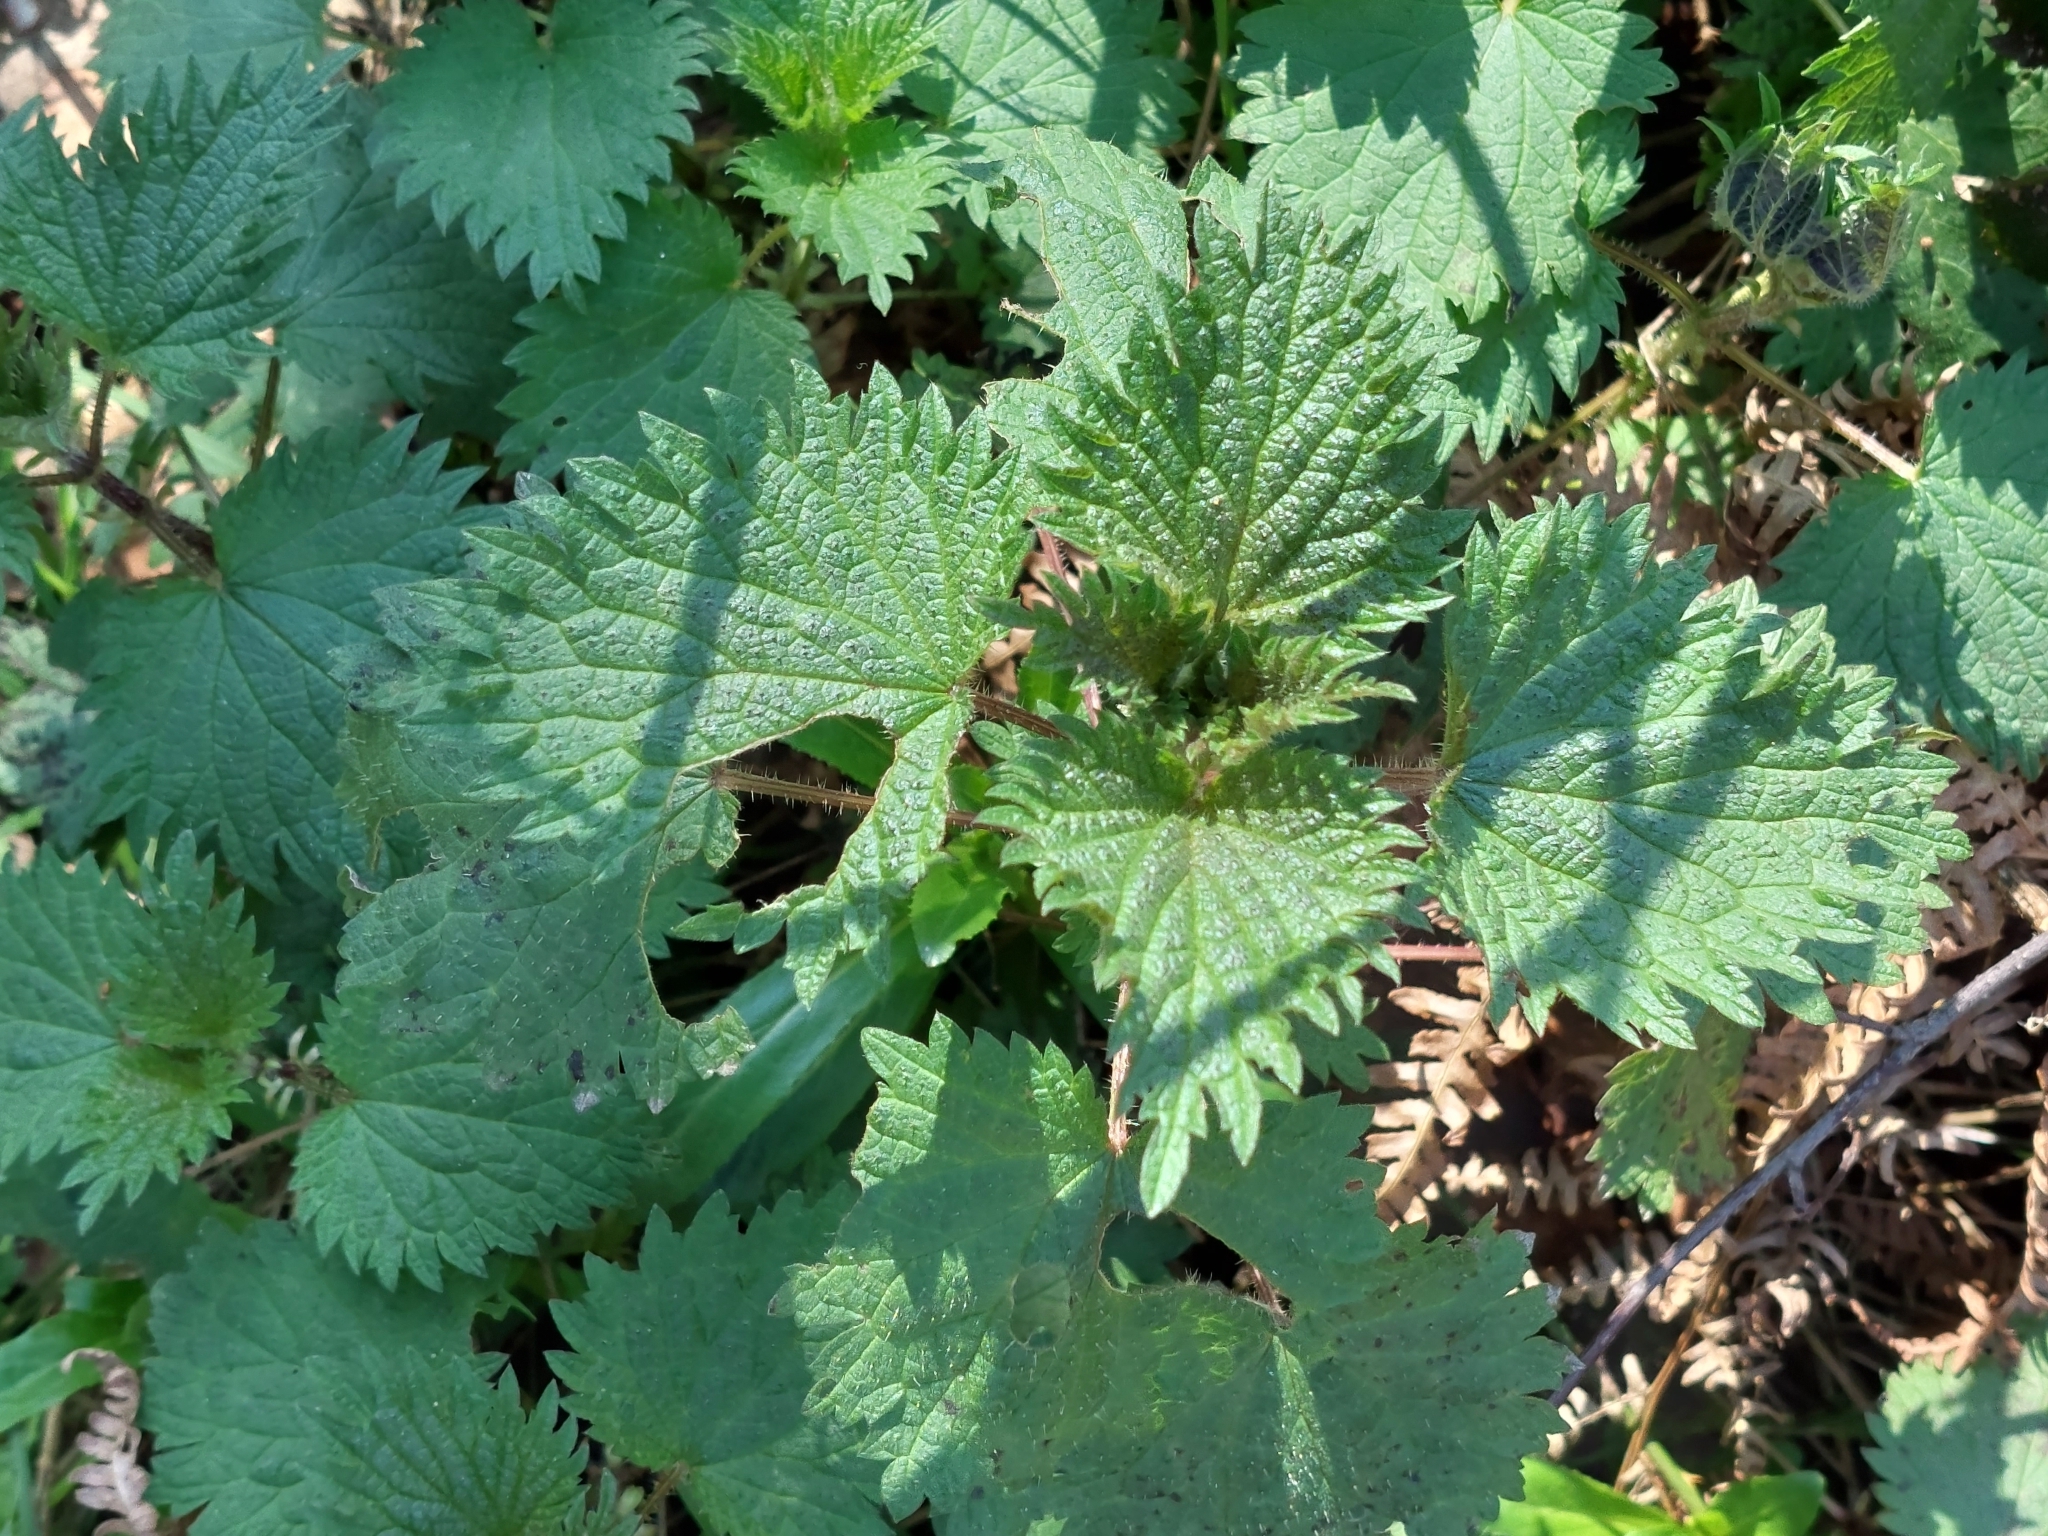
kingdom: Plantae
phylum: Tracheophyta
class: Magnoliopsida
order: Rosales
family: Urticaceae
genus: Urtica
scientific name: Urtica dioica
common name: Common nettle
